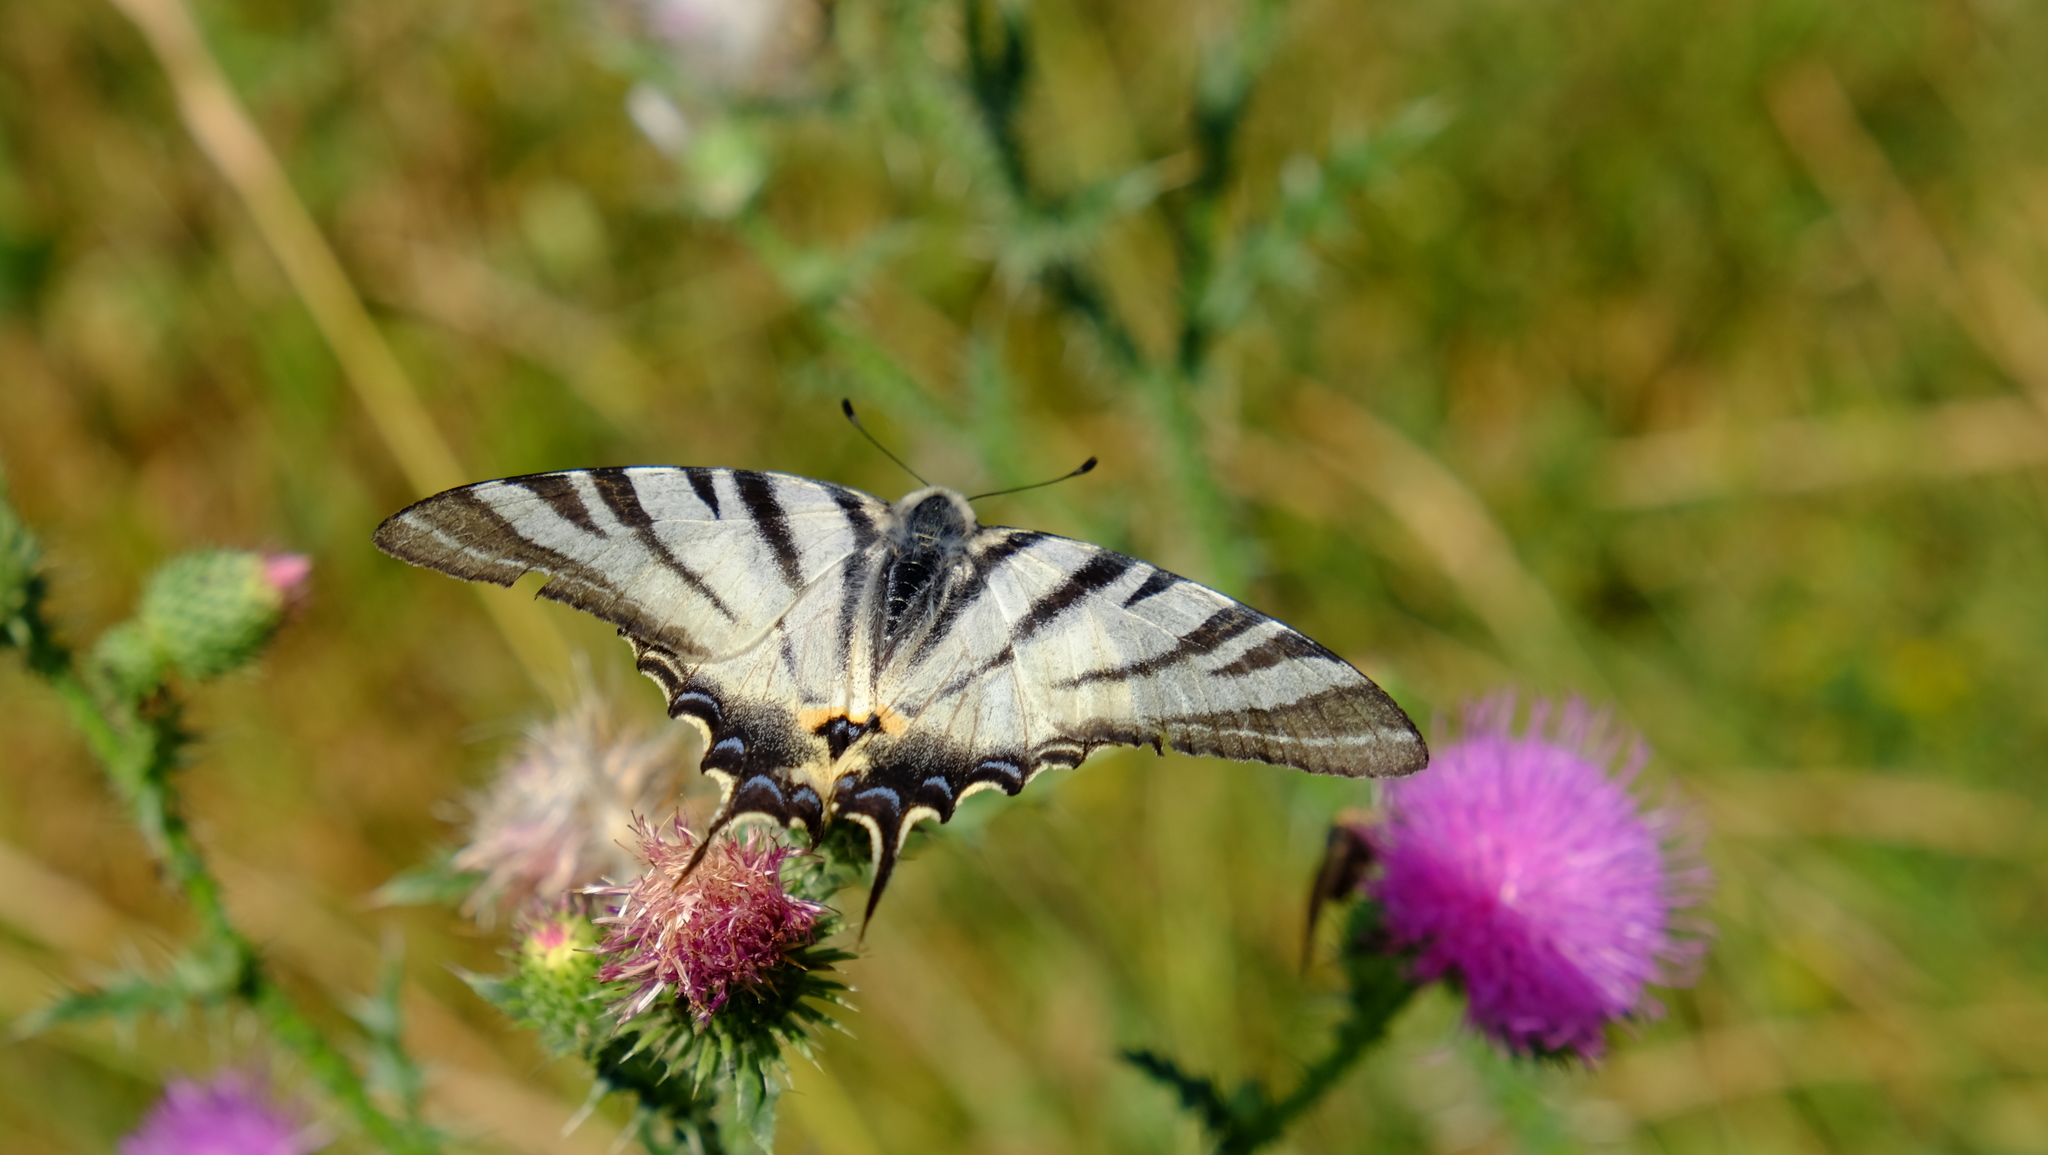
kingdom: Animalia
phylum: Arthropoda
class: Insecta
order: Lepidoptera
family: Papilionidae
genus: Iphiclides
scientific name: Iphiclides podalirius
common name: Scarce swallowtail
